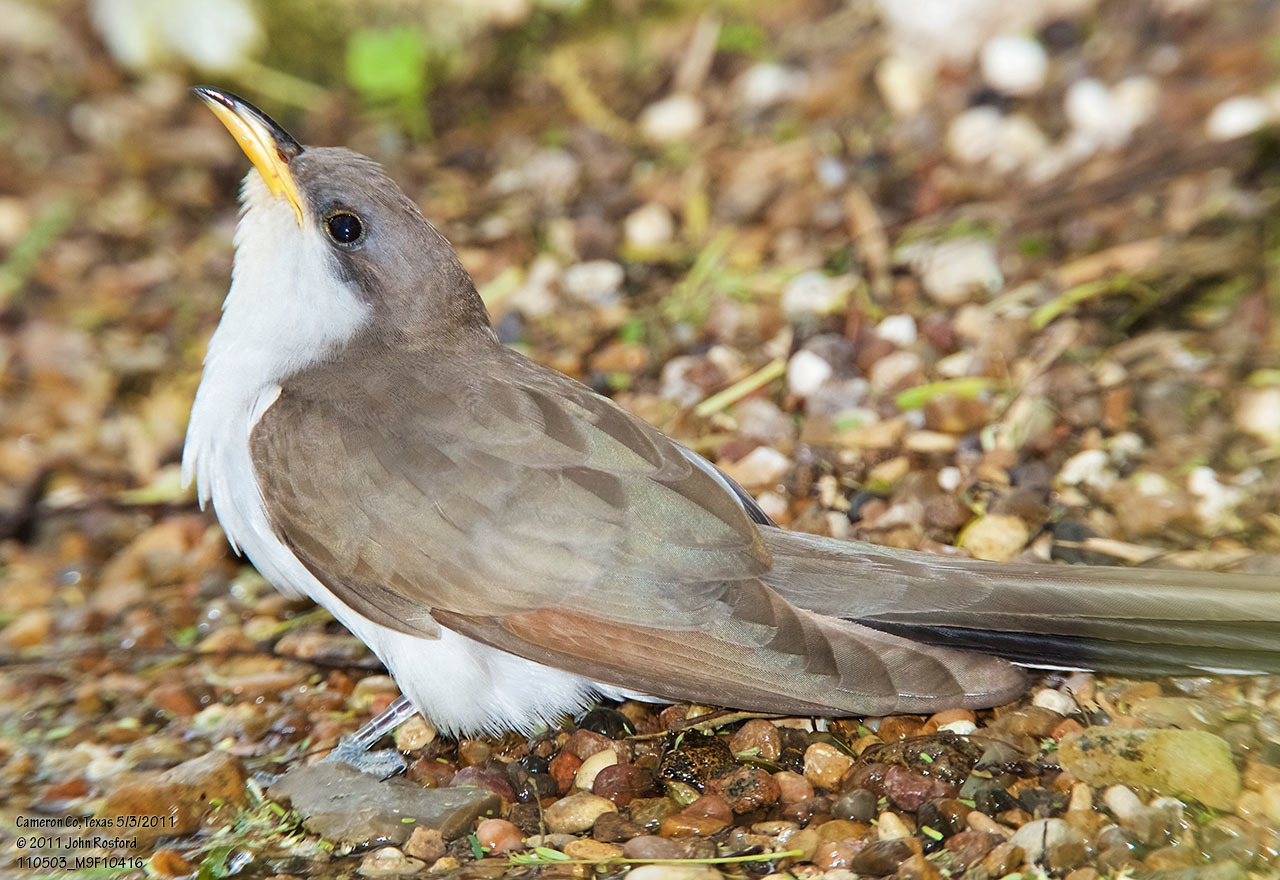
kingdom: Animalia
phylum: Chordata
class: Aves
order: Cuculiformes
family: Cuculidae
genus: Coccyzus
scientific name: Coccyzus americanus
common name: Yellow-billed cuckoo
